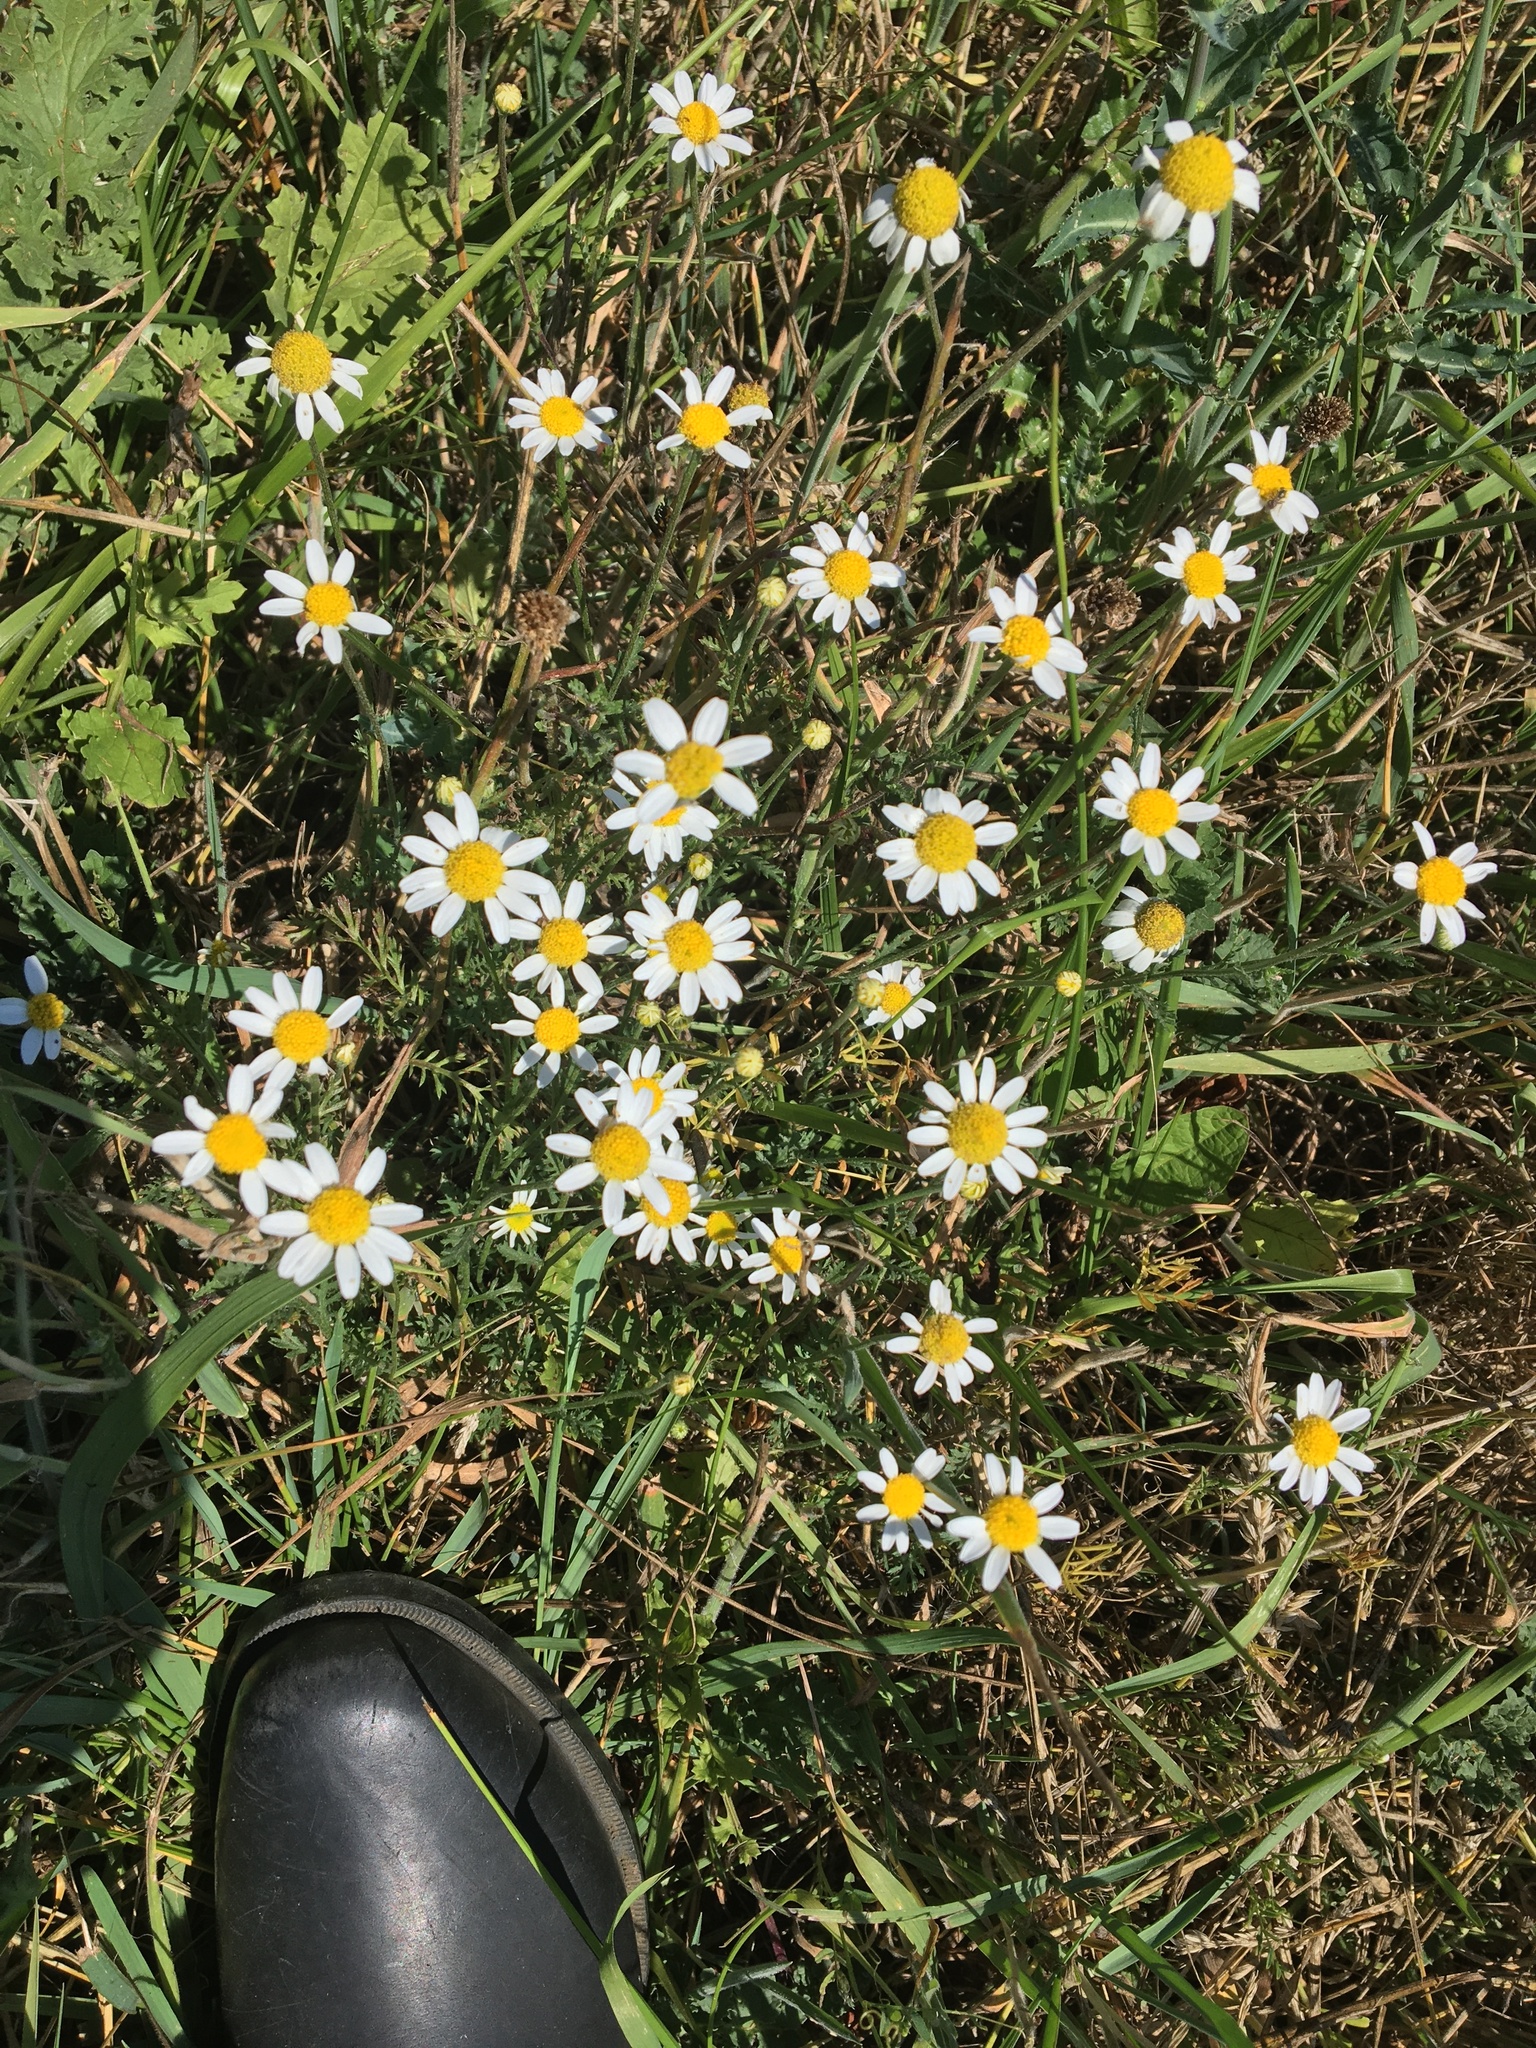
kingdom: Plantae
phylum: Tracheophyta
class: Magnoliopsida
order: Asterales
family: Asteraceae
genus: Anthemis
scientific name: Anthemis cotula
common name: Stinking chamomile
